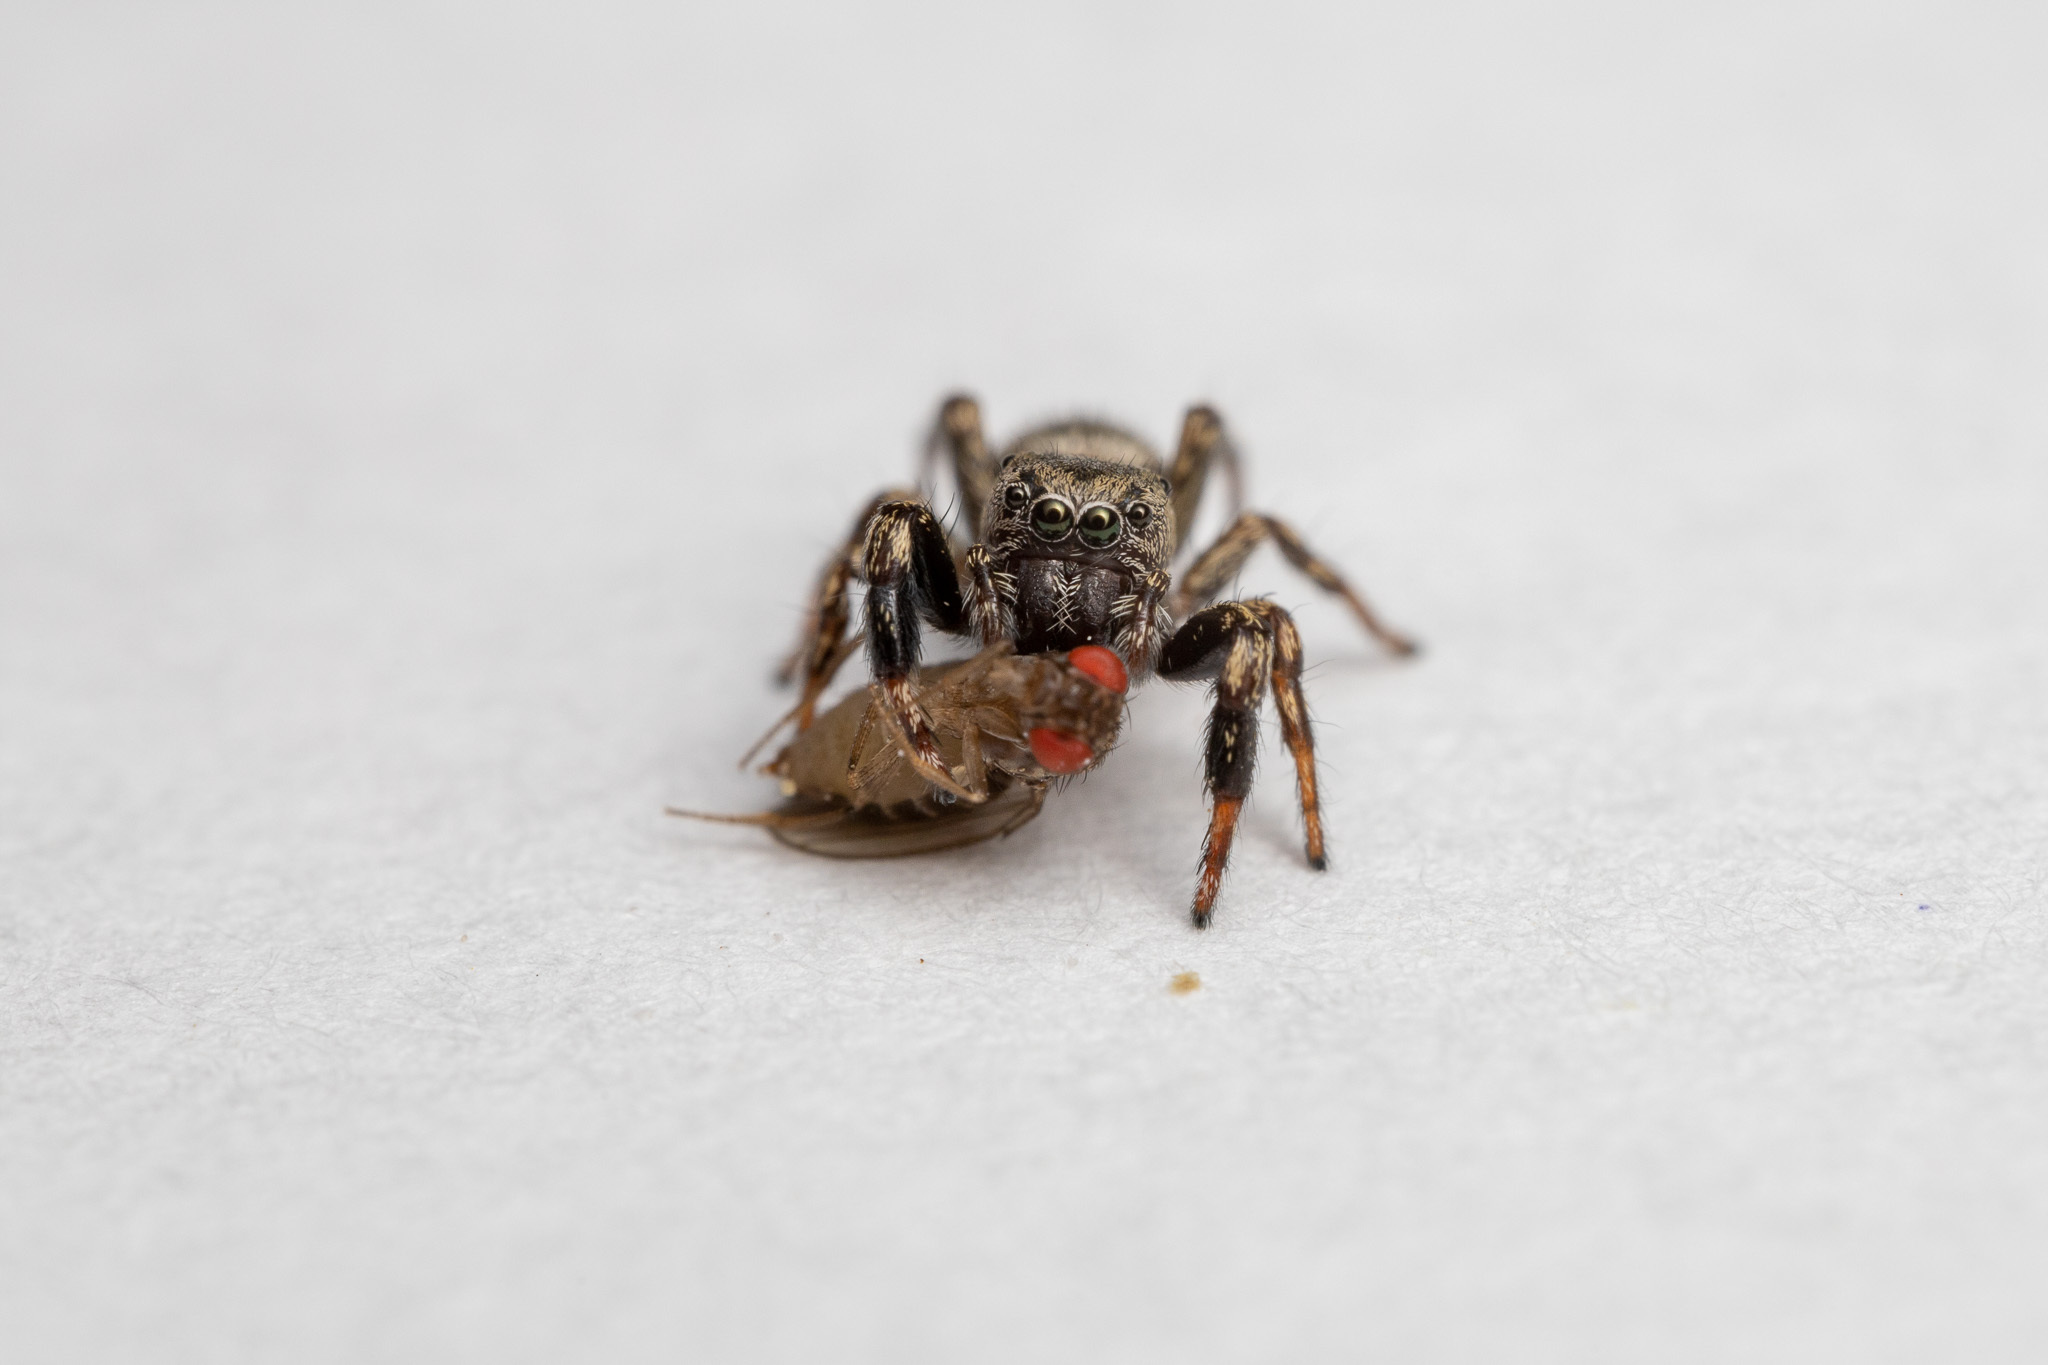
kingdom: Animalia
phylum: Arthropoda
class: Arachnida
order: Araneae
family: Salticidae
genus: Tutelina
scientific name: Tutelina harti
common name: Hart's jumping spider
